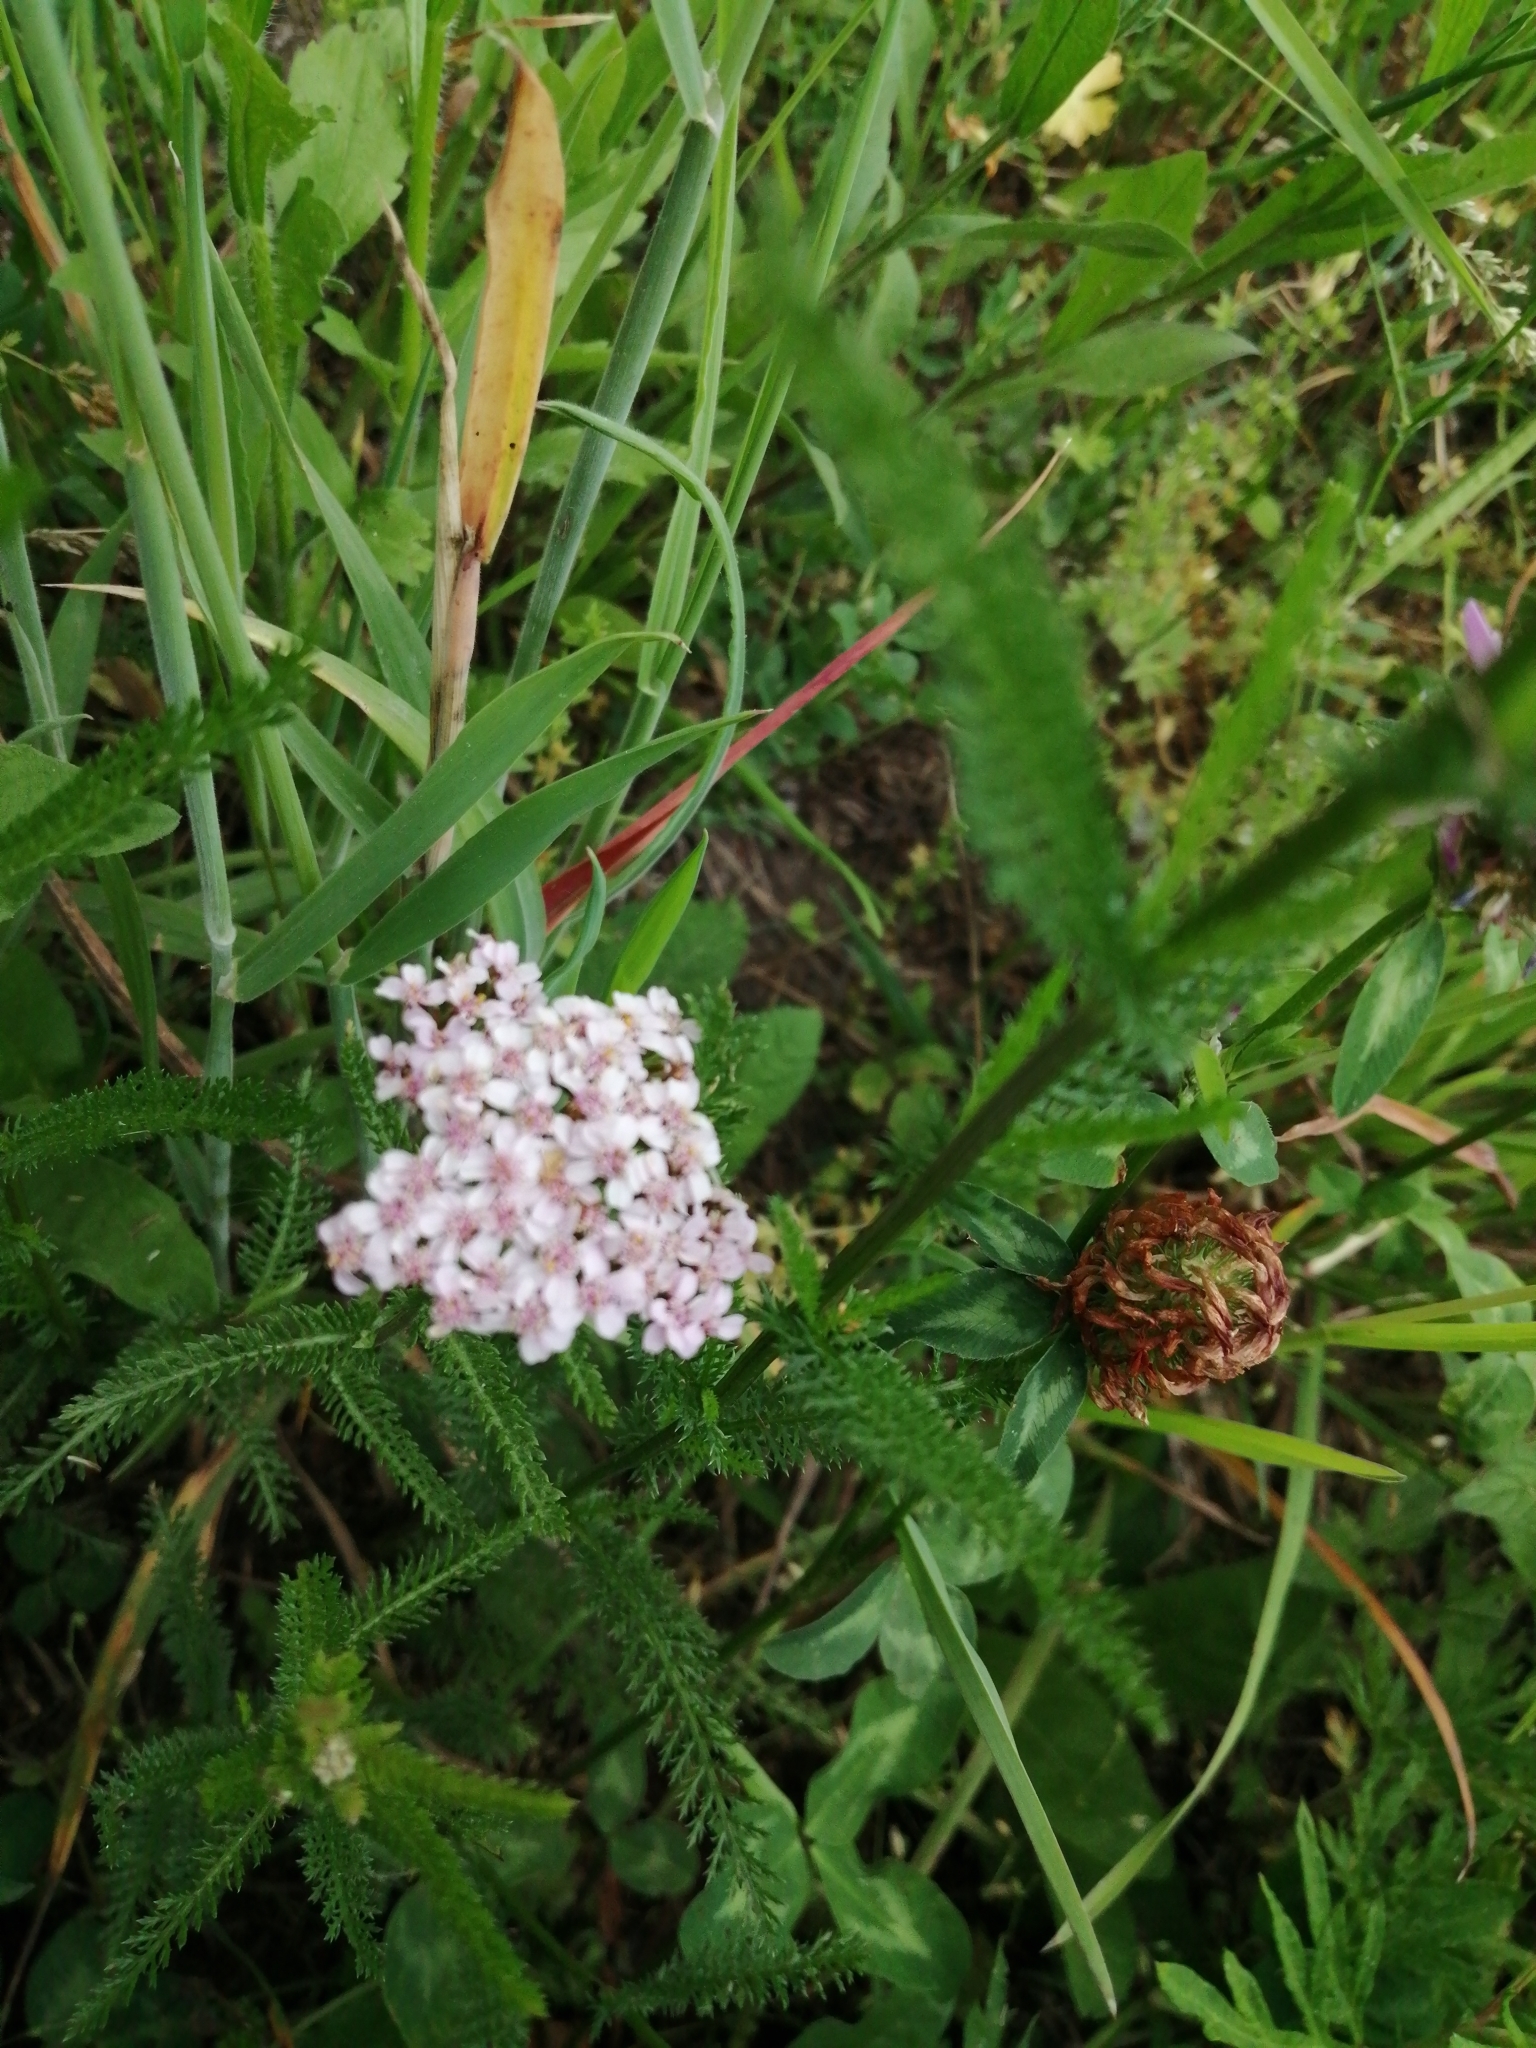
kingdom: Plantae
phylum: Tracheophyta
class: Magnoliopsida
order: Asterales
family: Asteraceae
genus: Achillea
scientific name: Achillea roseoalba
